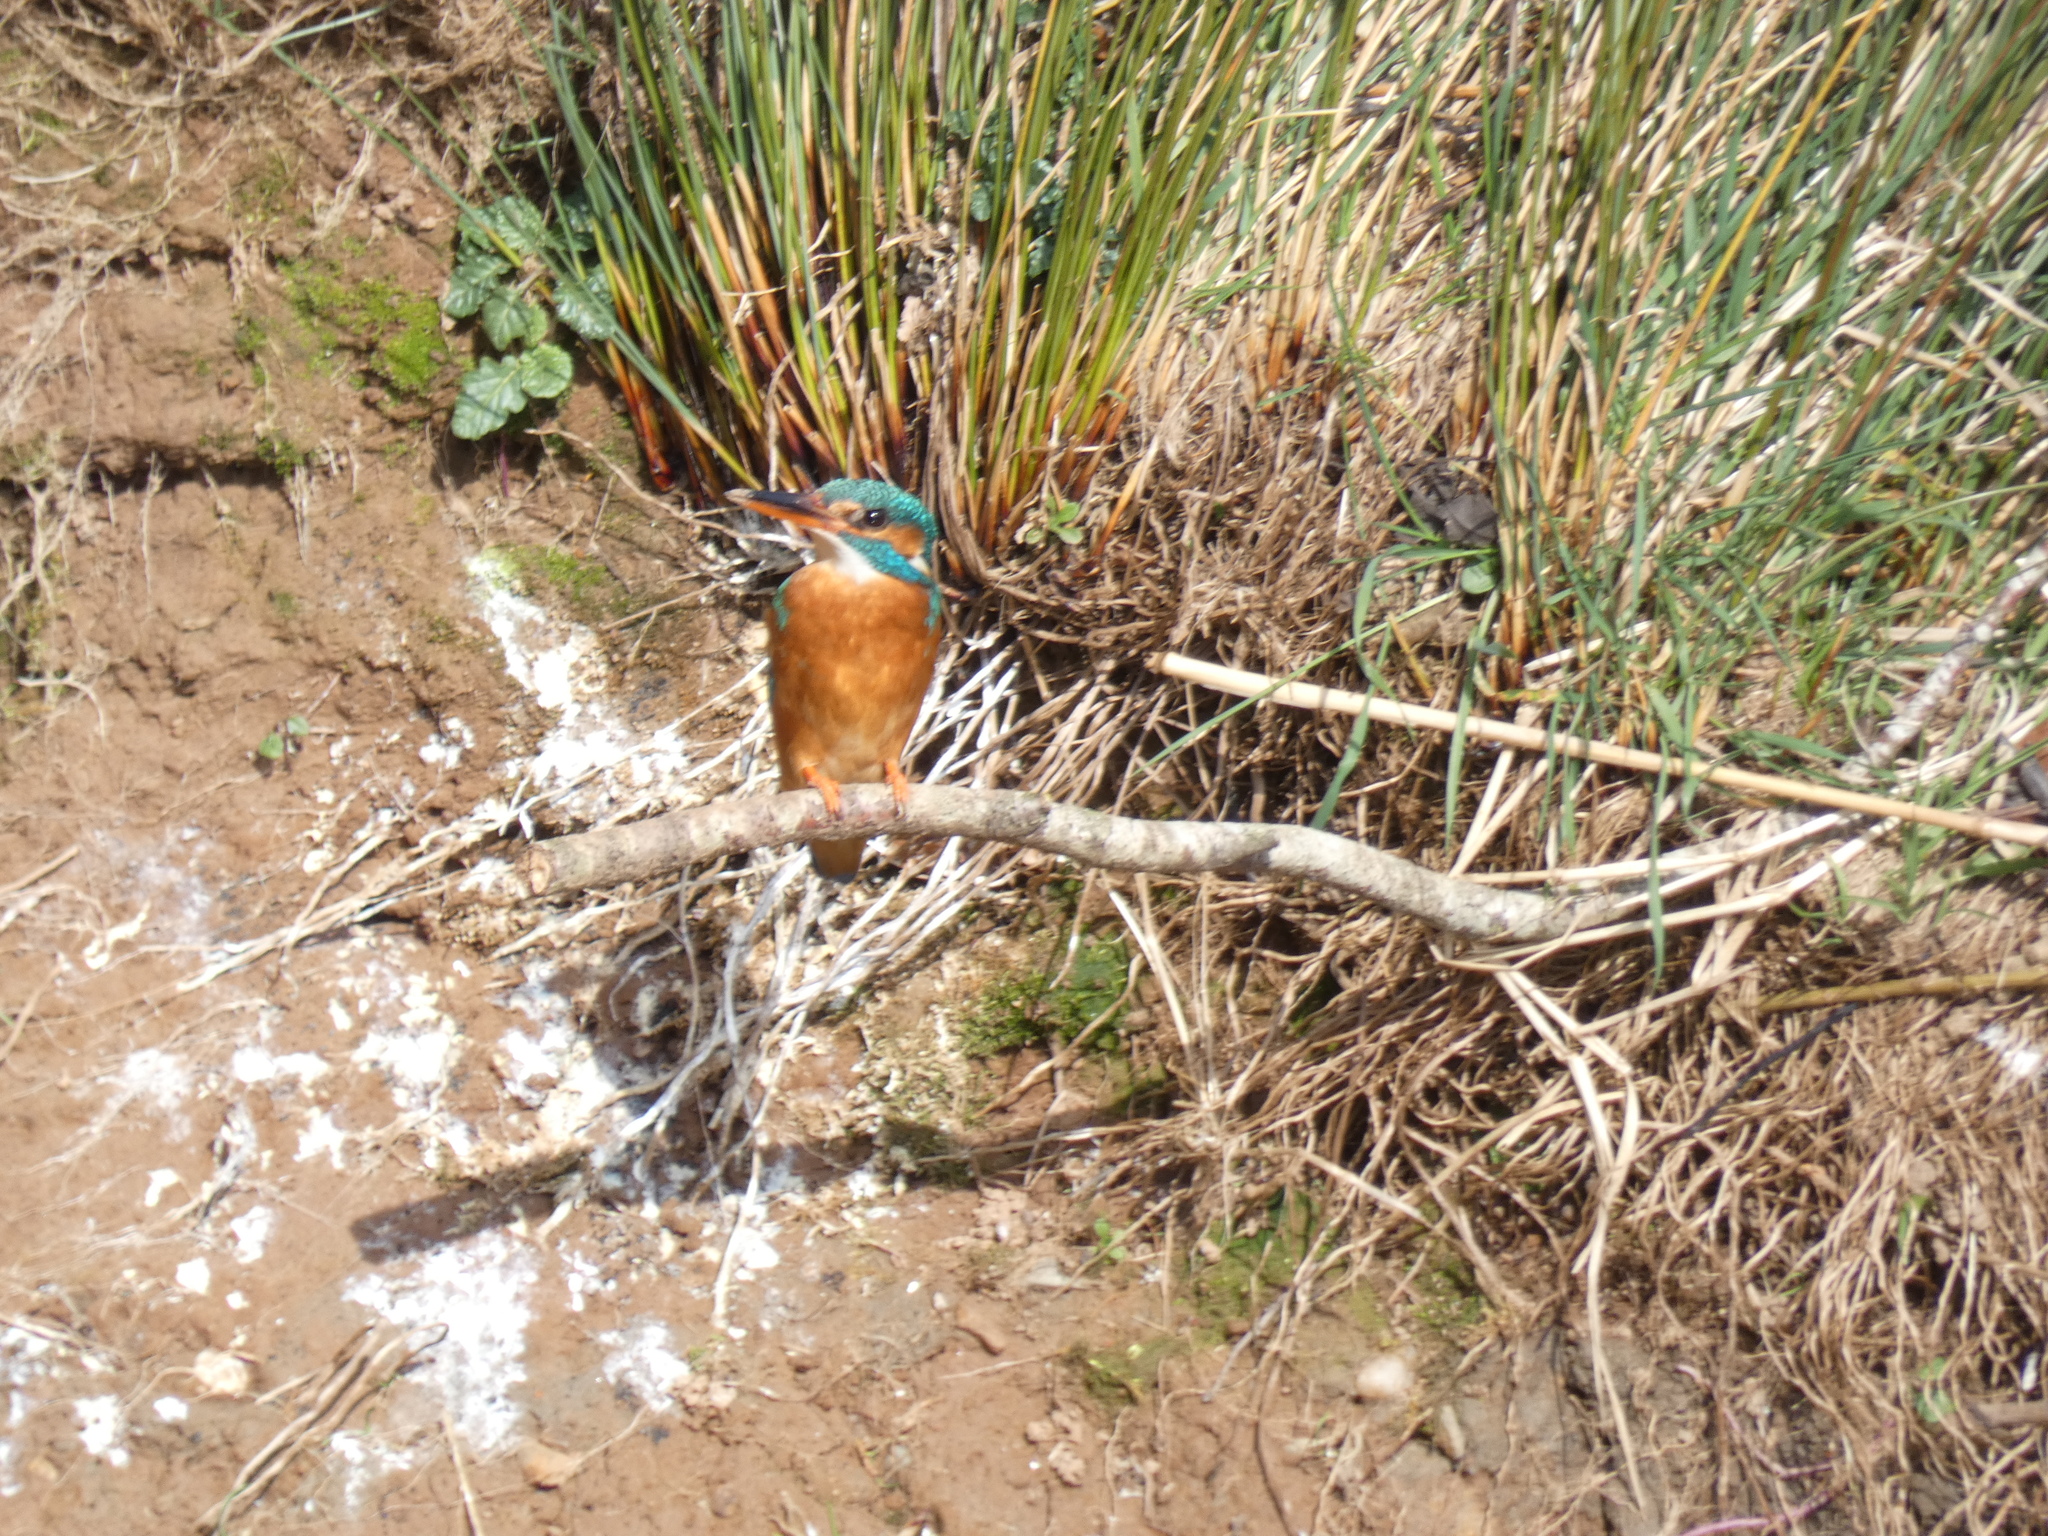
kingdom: Animalia
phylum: Chordata
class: Aves
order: Coraciiformes
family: Alcedinidae
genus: Alcedo
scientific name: Alcedo atthis
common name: Common kingfisher
